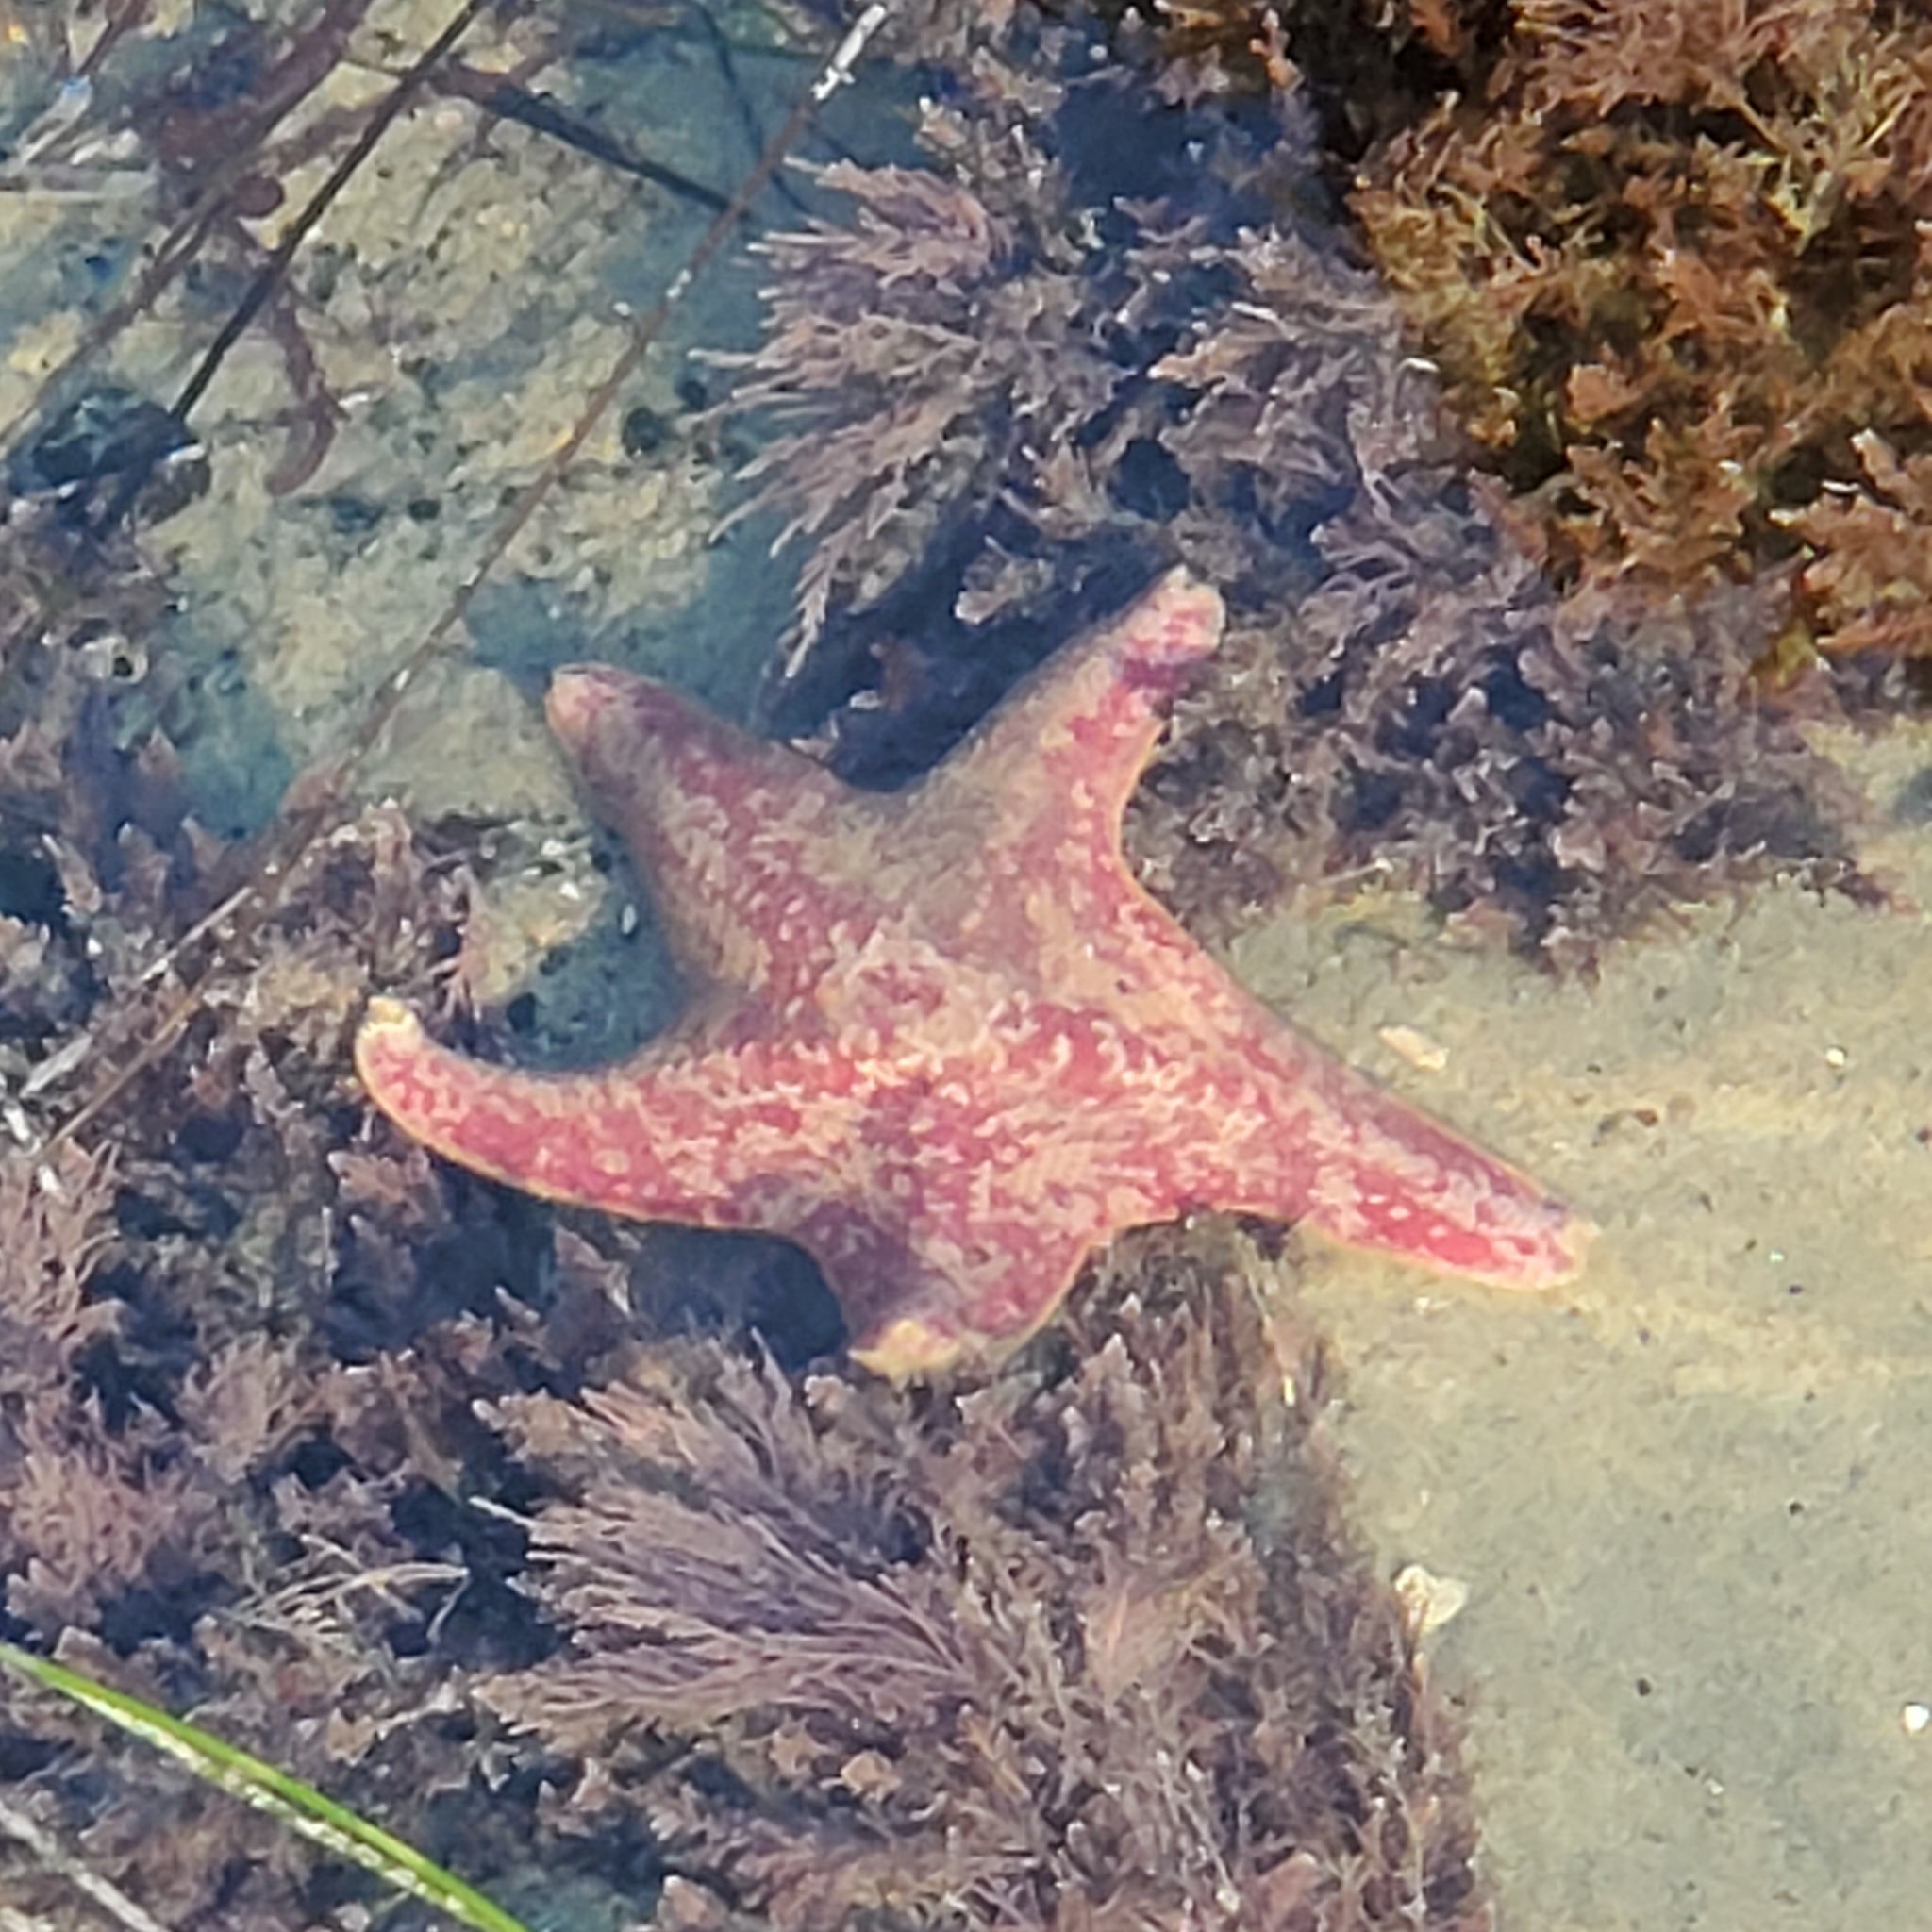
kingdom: Animalia
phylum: Echinodermata
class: Asteroidea
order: Valvatida
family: Asterinidae
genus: Patiria
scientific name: Patiria miniata
